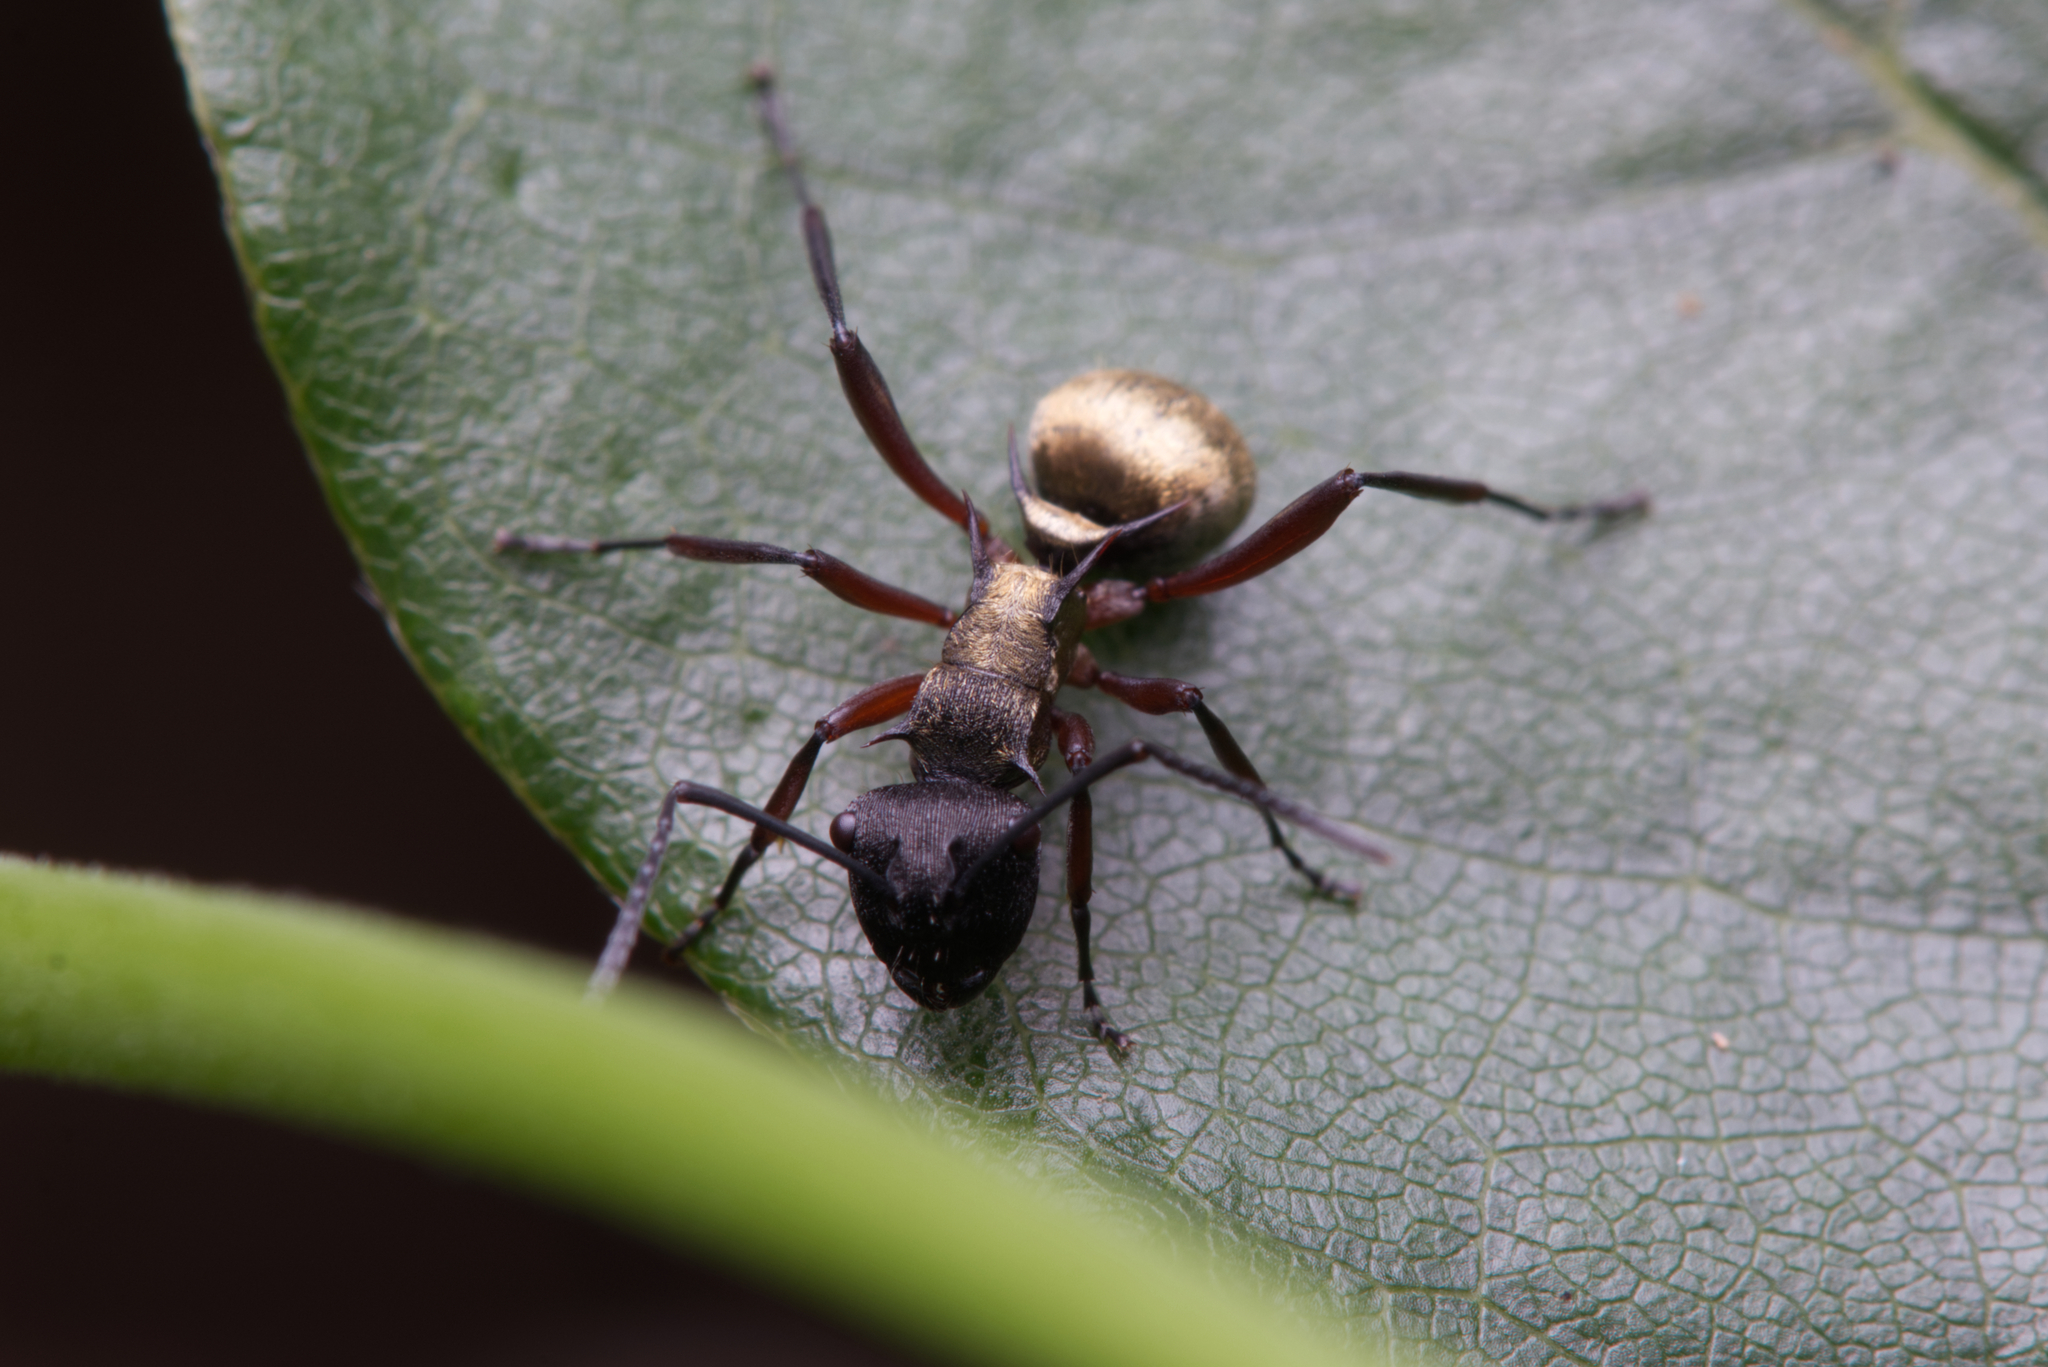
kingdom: Animalia
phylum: Arthropoda
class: Insecta
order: Hymenoptera
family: Formicidae
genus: Polyrhachis
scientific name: Polyrhachis rufifemur
